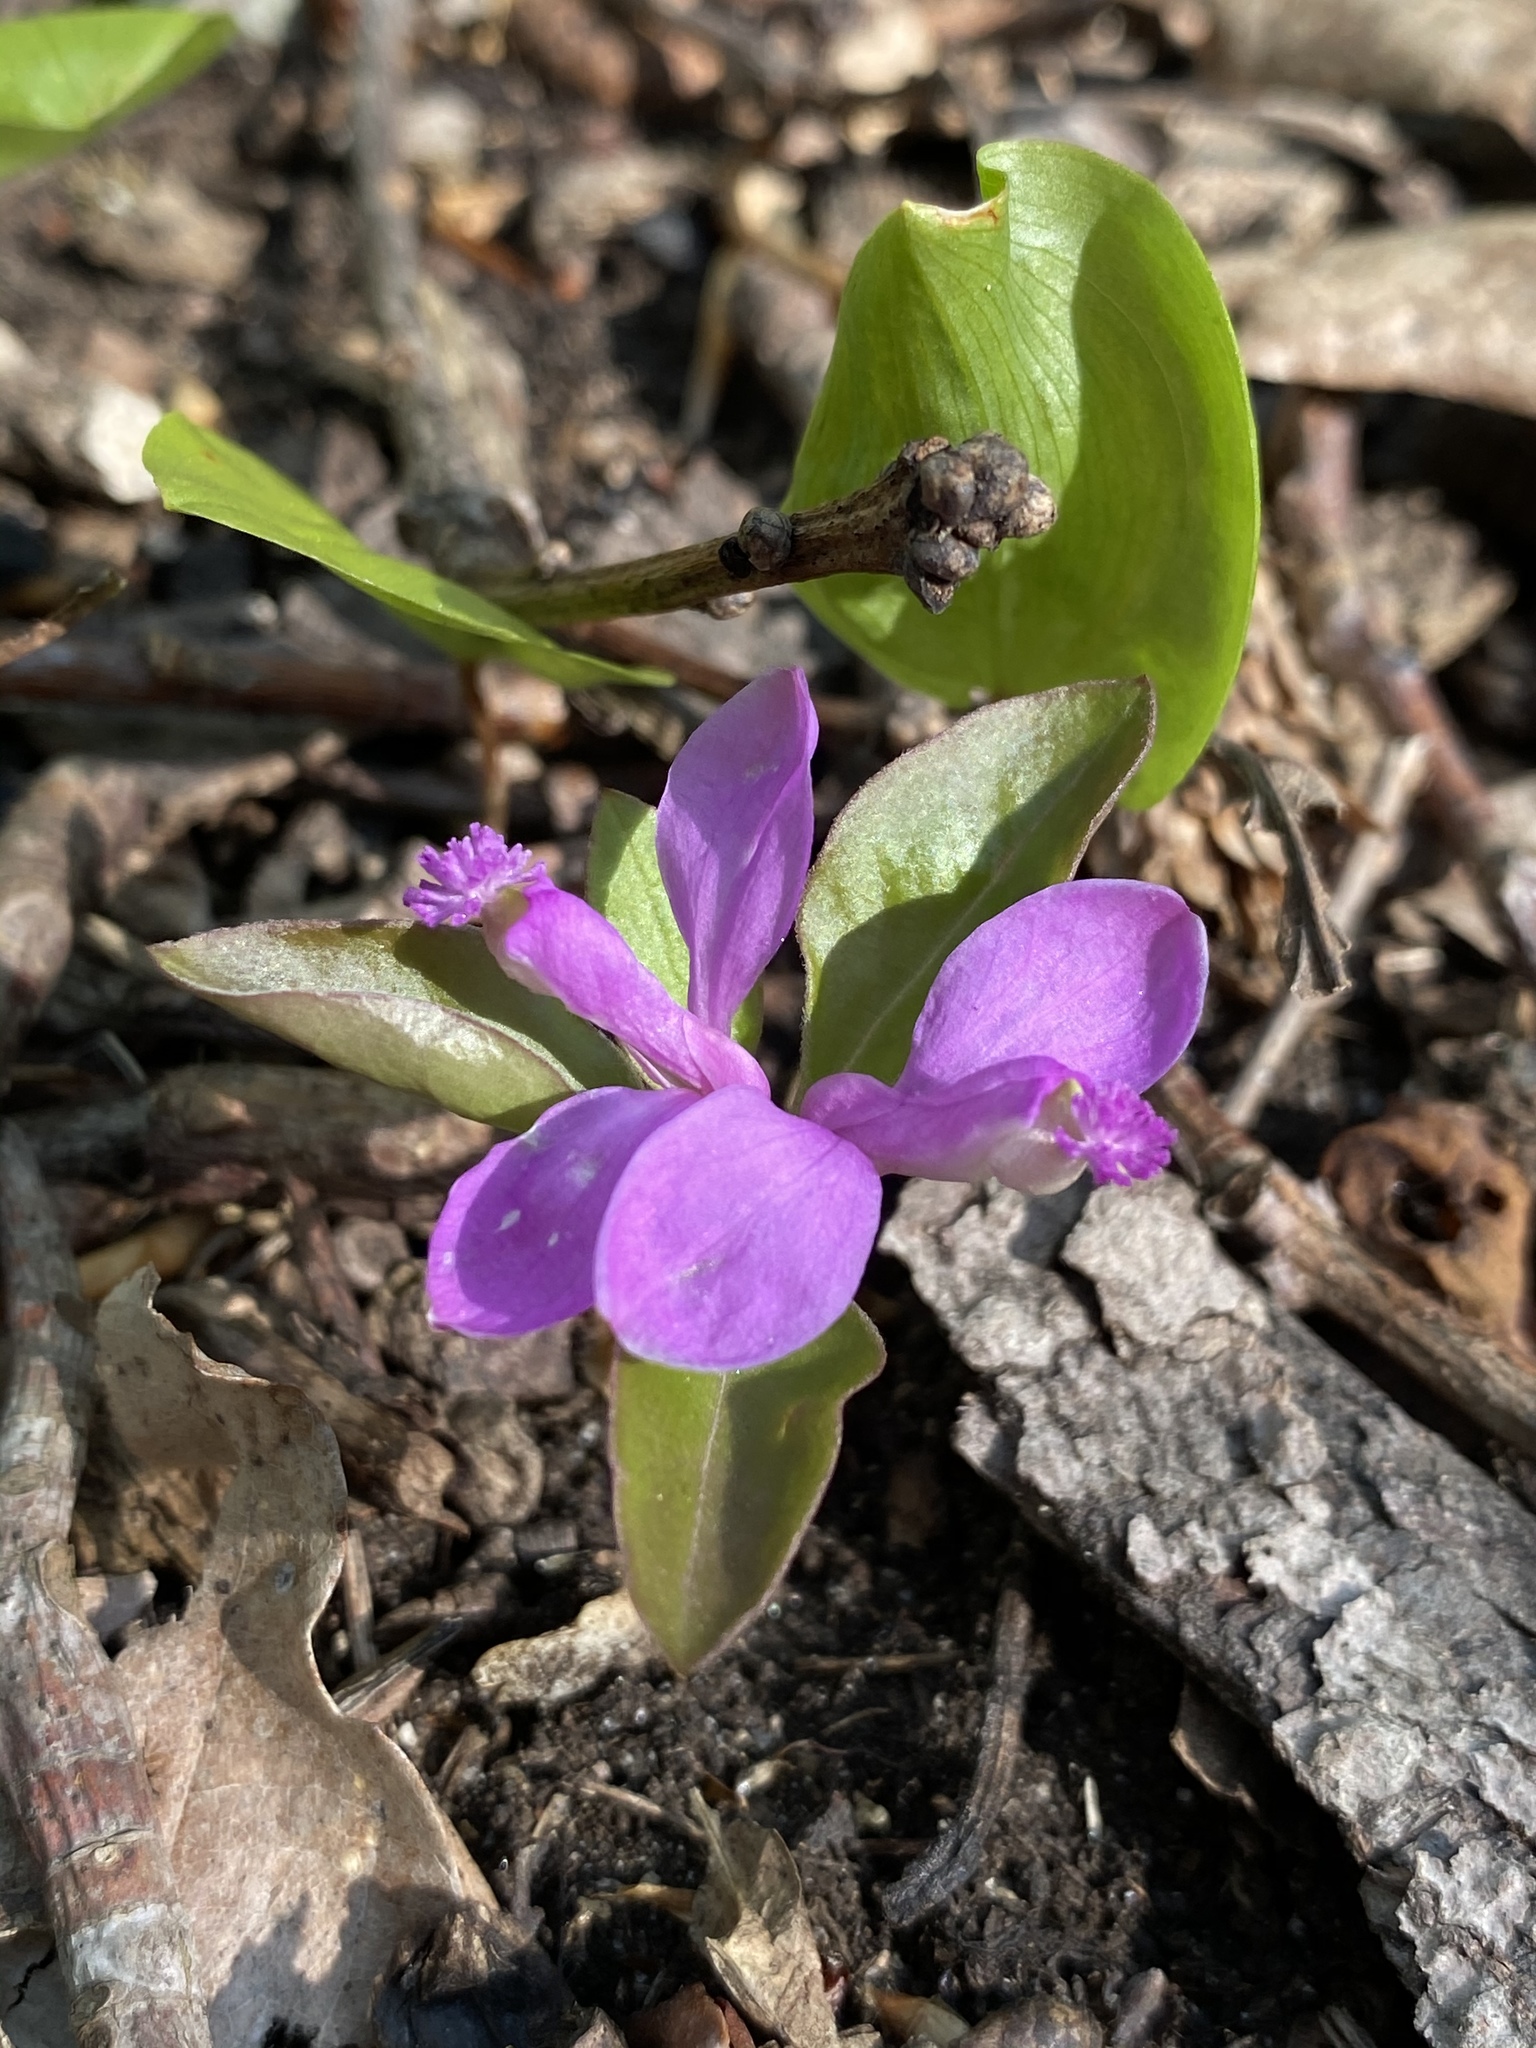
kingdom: Plantae
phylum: Tracheophyta
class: Magnoliopsida
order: Fabales
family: Polygalaceae
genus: Polygaloides
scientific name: Polygaloides paucifolia
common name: Bird-on-the-wing
